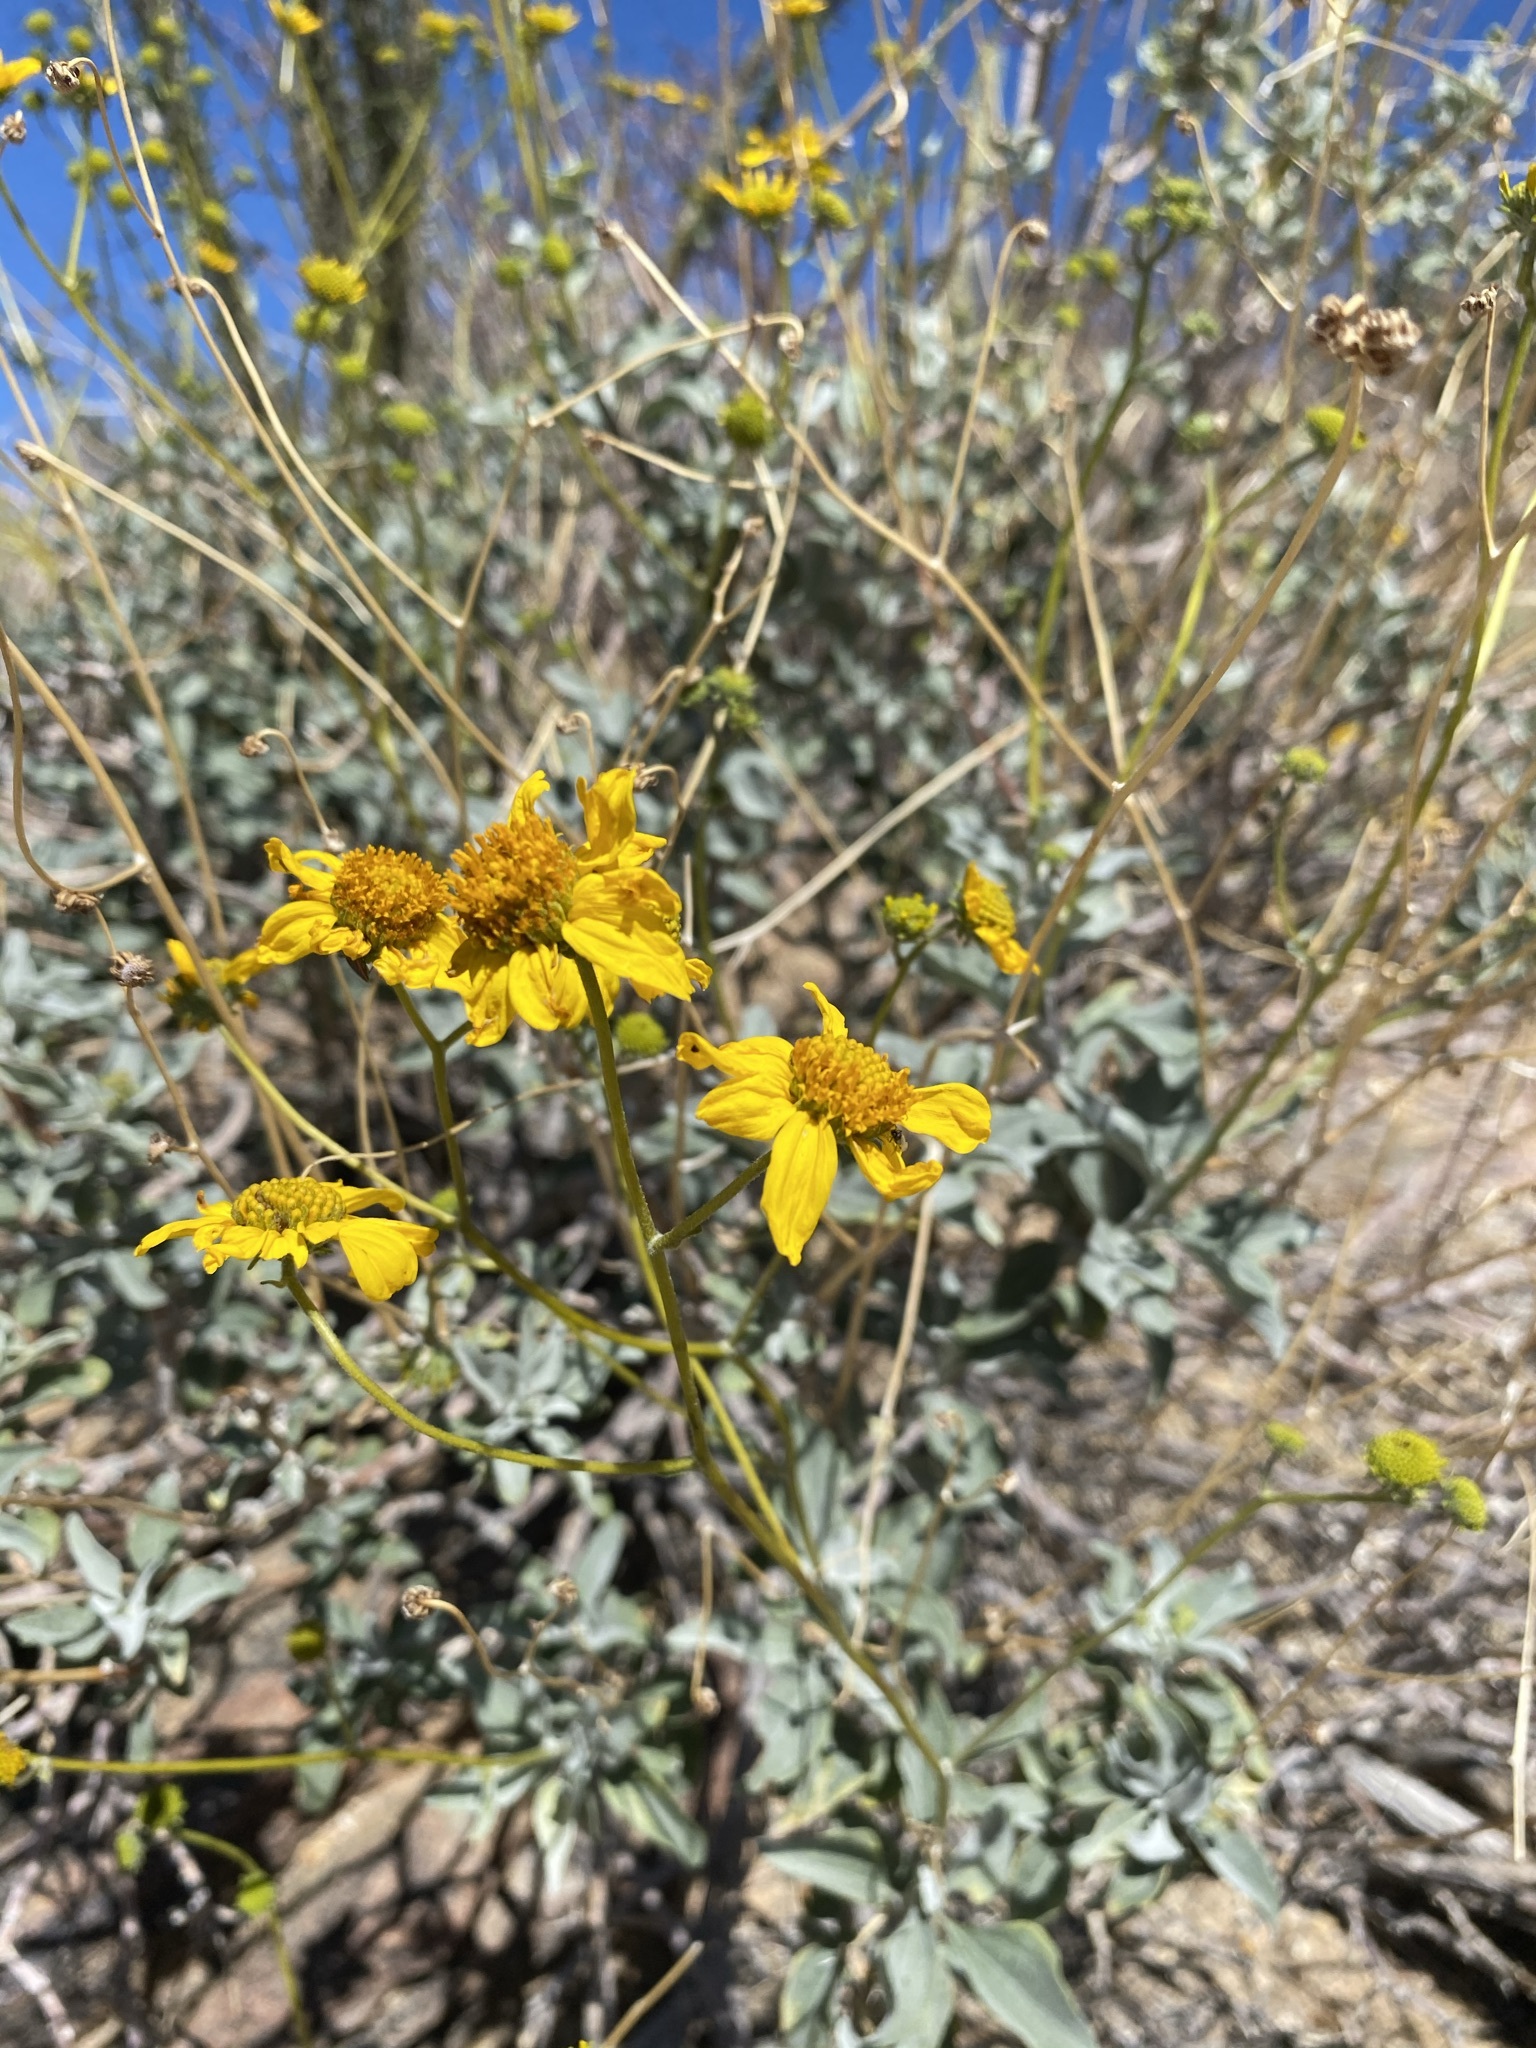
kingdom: Plantae
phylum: Tracheophyta
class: Magnoliopsida
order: Asterales
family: Asteraceae
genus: Encelia
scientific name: Encelia farinosa
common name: Brittlebush
